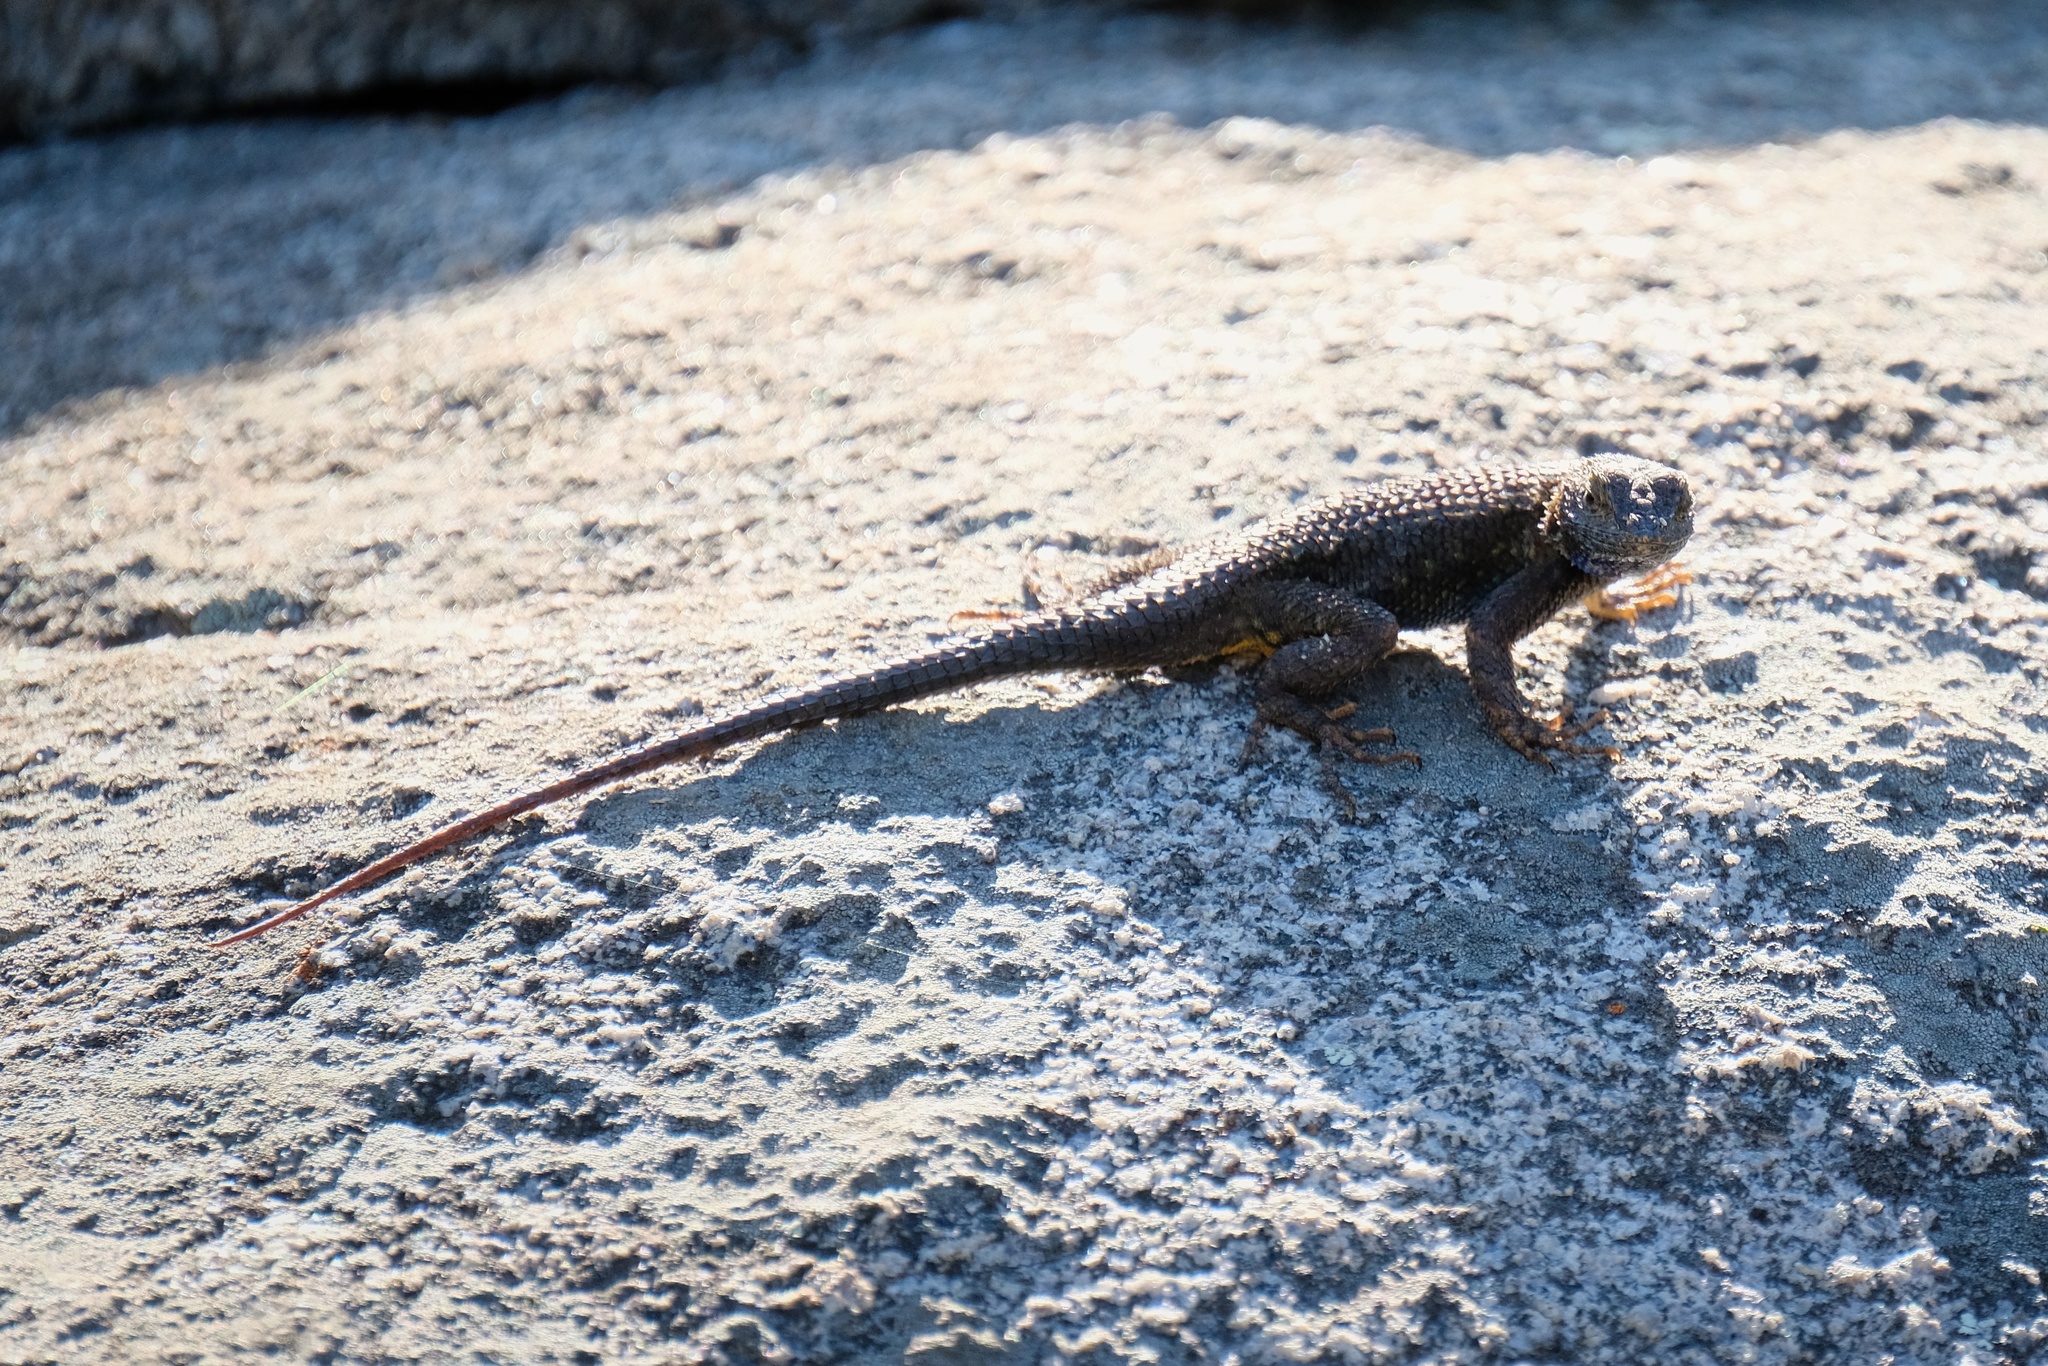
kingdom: Animalia
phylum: Chordata
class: Squamata
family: Phrynosomatidae
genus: Sceloporus
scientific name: Sceloporus occidentalis
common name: Western fence lizard
